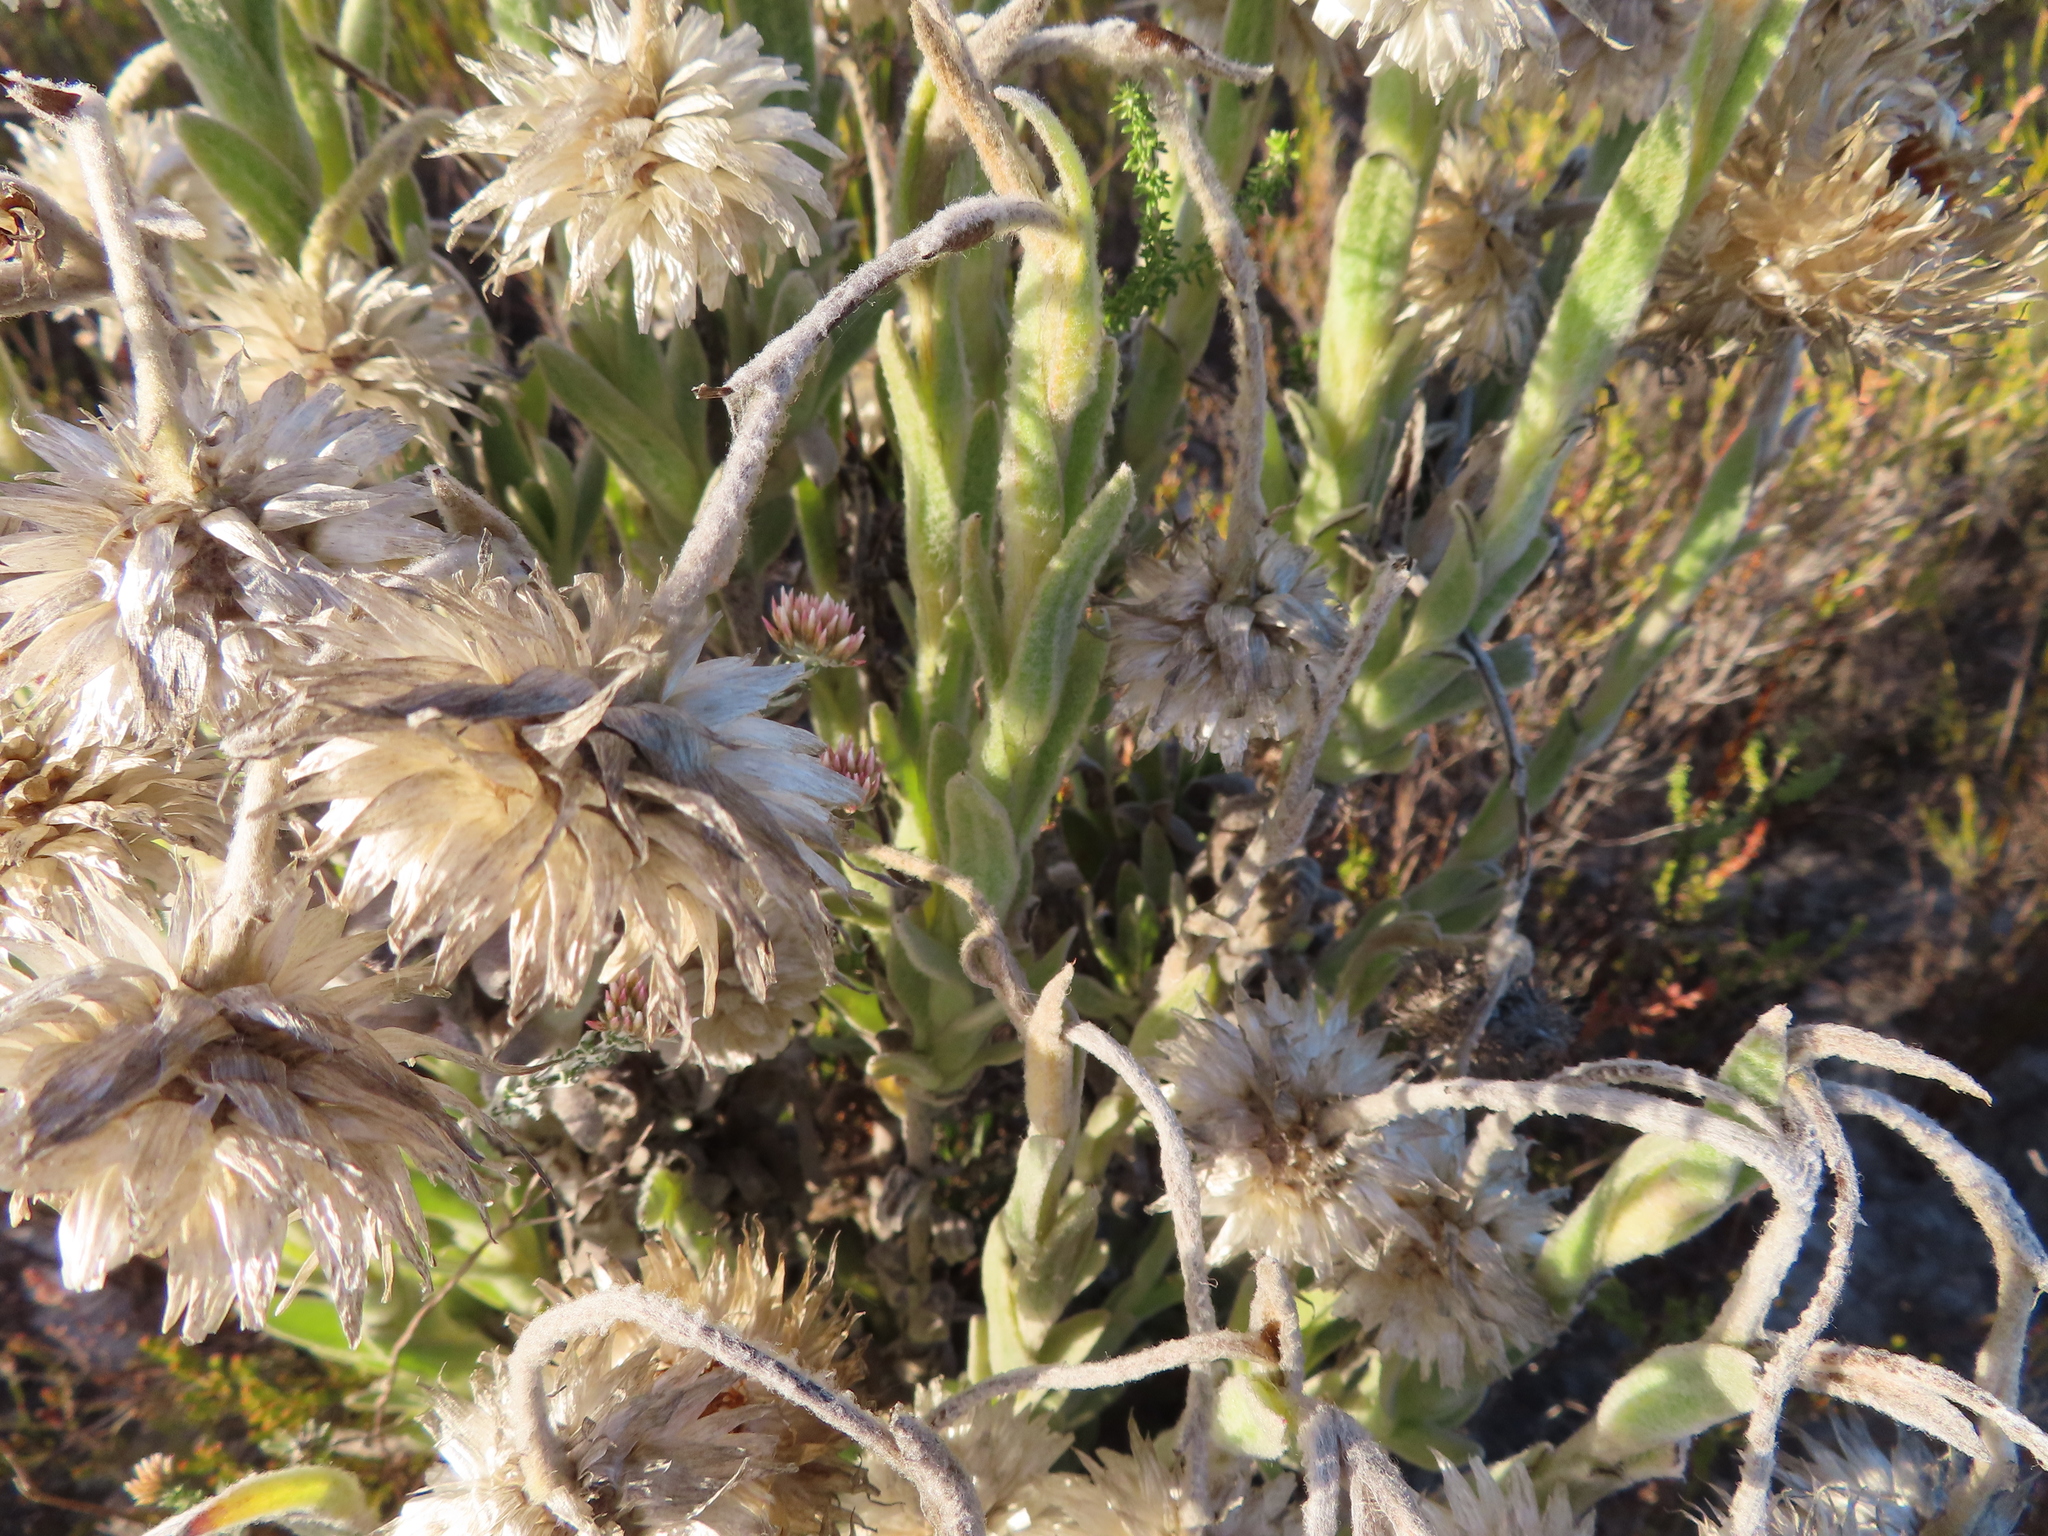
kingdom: Plantae
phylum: Tracheophyta
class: Magnoliopsida
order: Asterales
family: Asteraceae
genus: Syncarpha
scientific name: Syncarpha vestita
